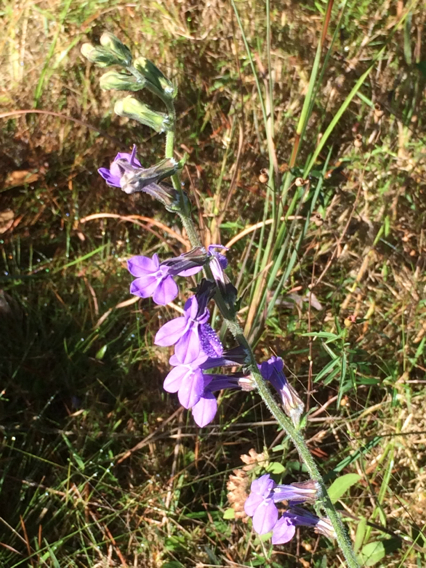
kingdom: Plantae
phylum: Tracheophyta
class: Magnoliopsida
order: Asterales
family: Campanulaceae
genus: Lobelia
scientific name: Lobelia puberula
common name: Purple dewdrop
